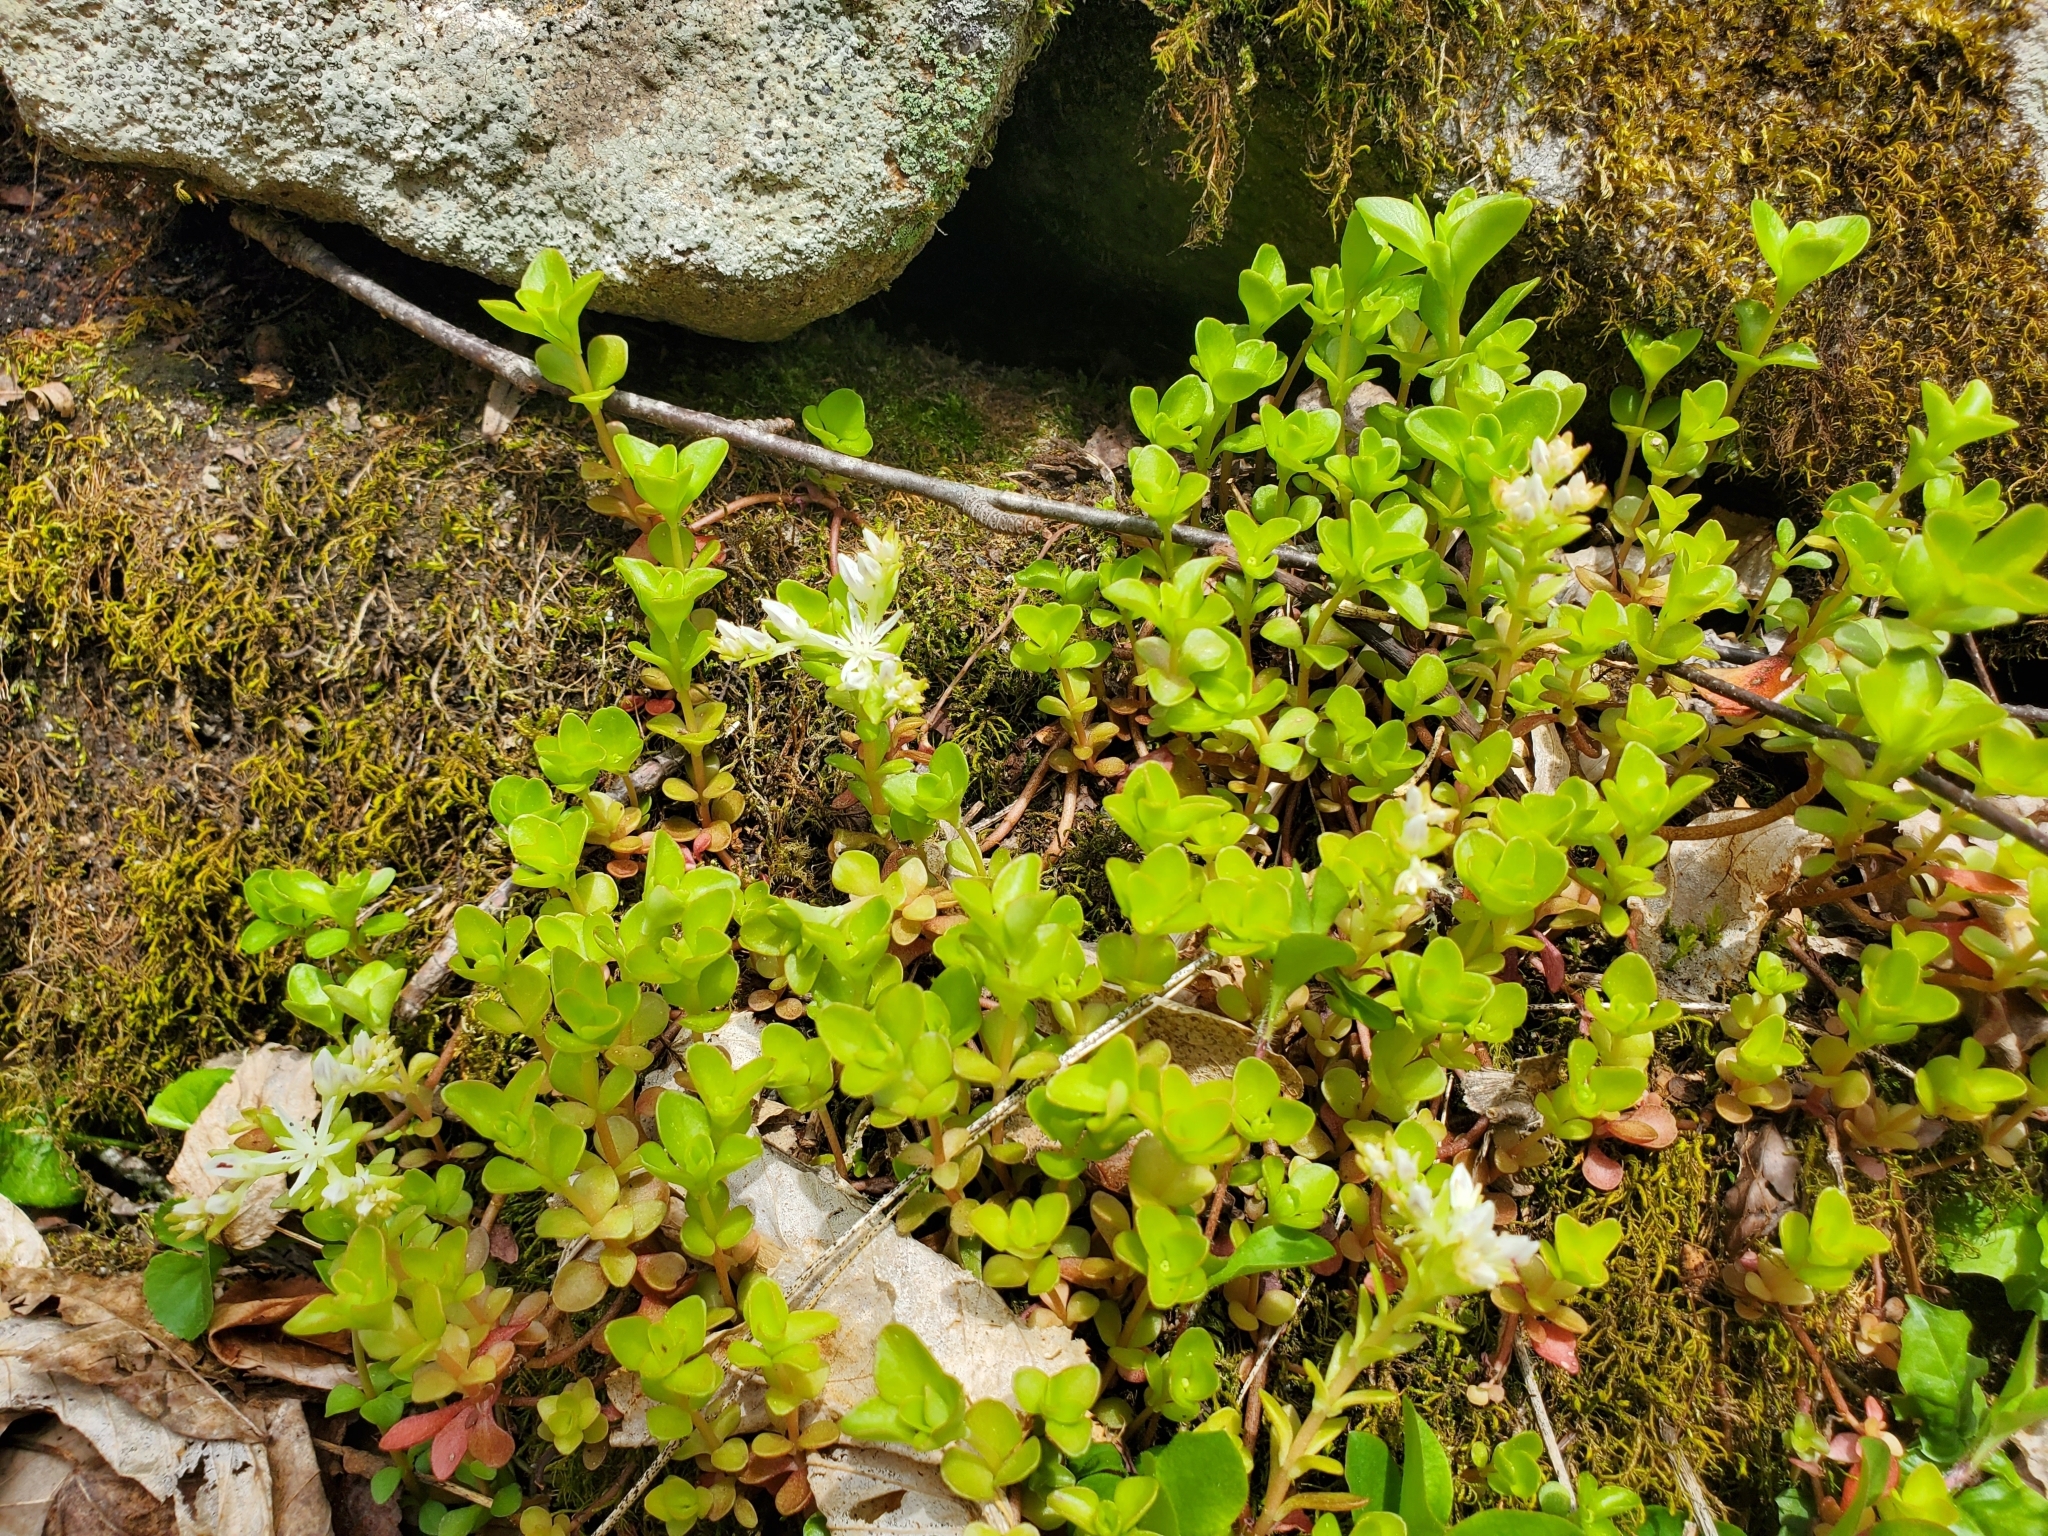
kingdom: Plantae
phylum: Tracheophyta
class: Magnoliopsida
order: Saxifragales
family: Crassulaceae
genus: Sedum
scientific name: Sedum ternatum
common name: Wild stonecrop
